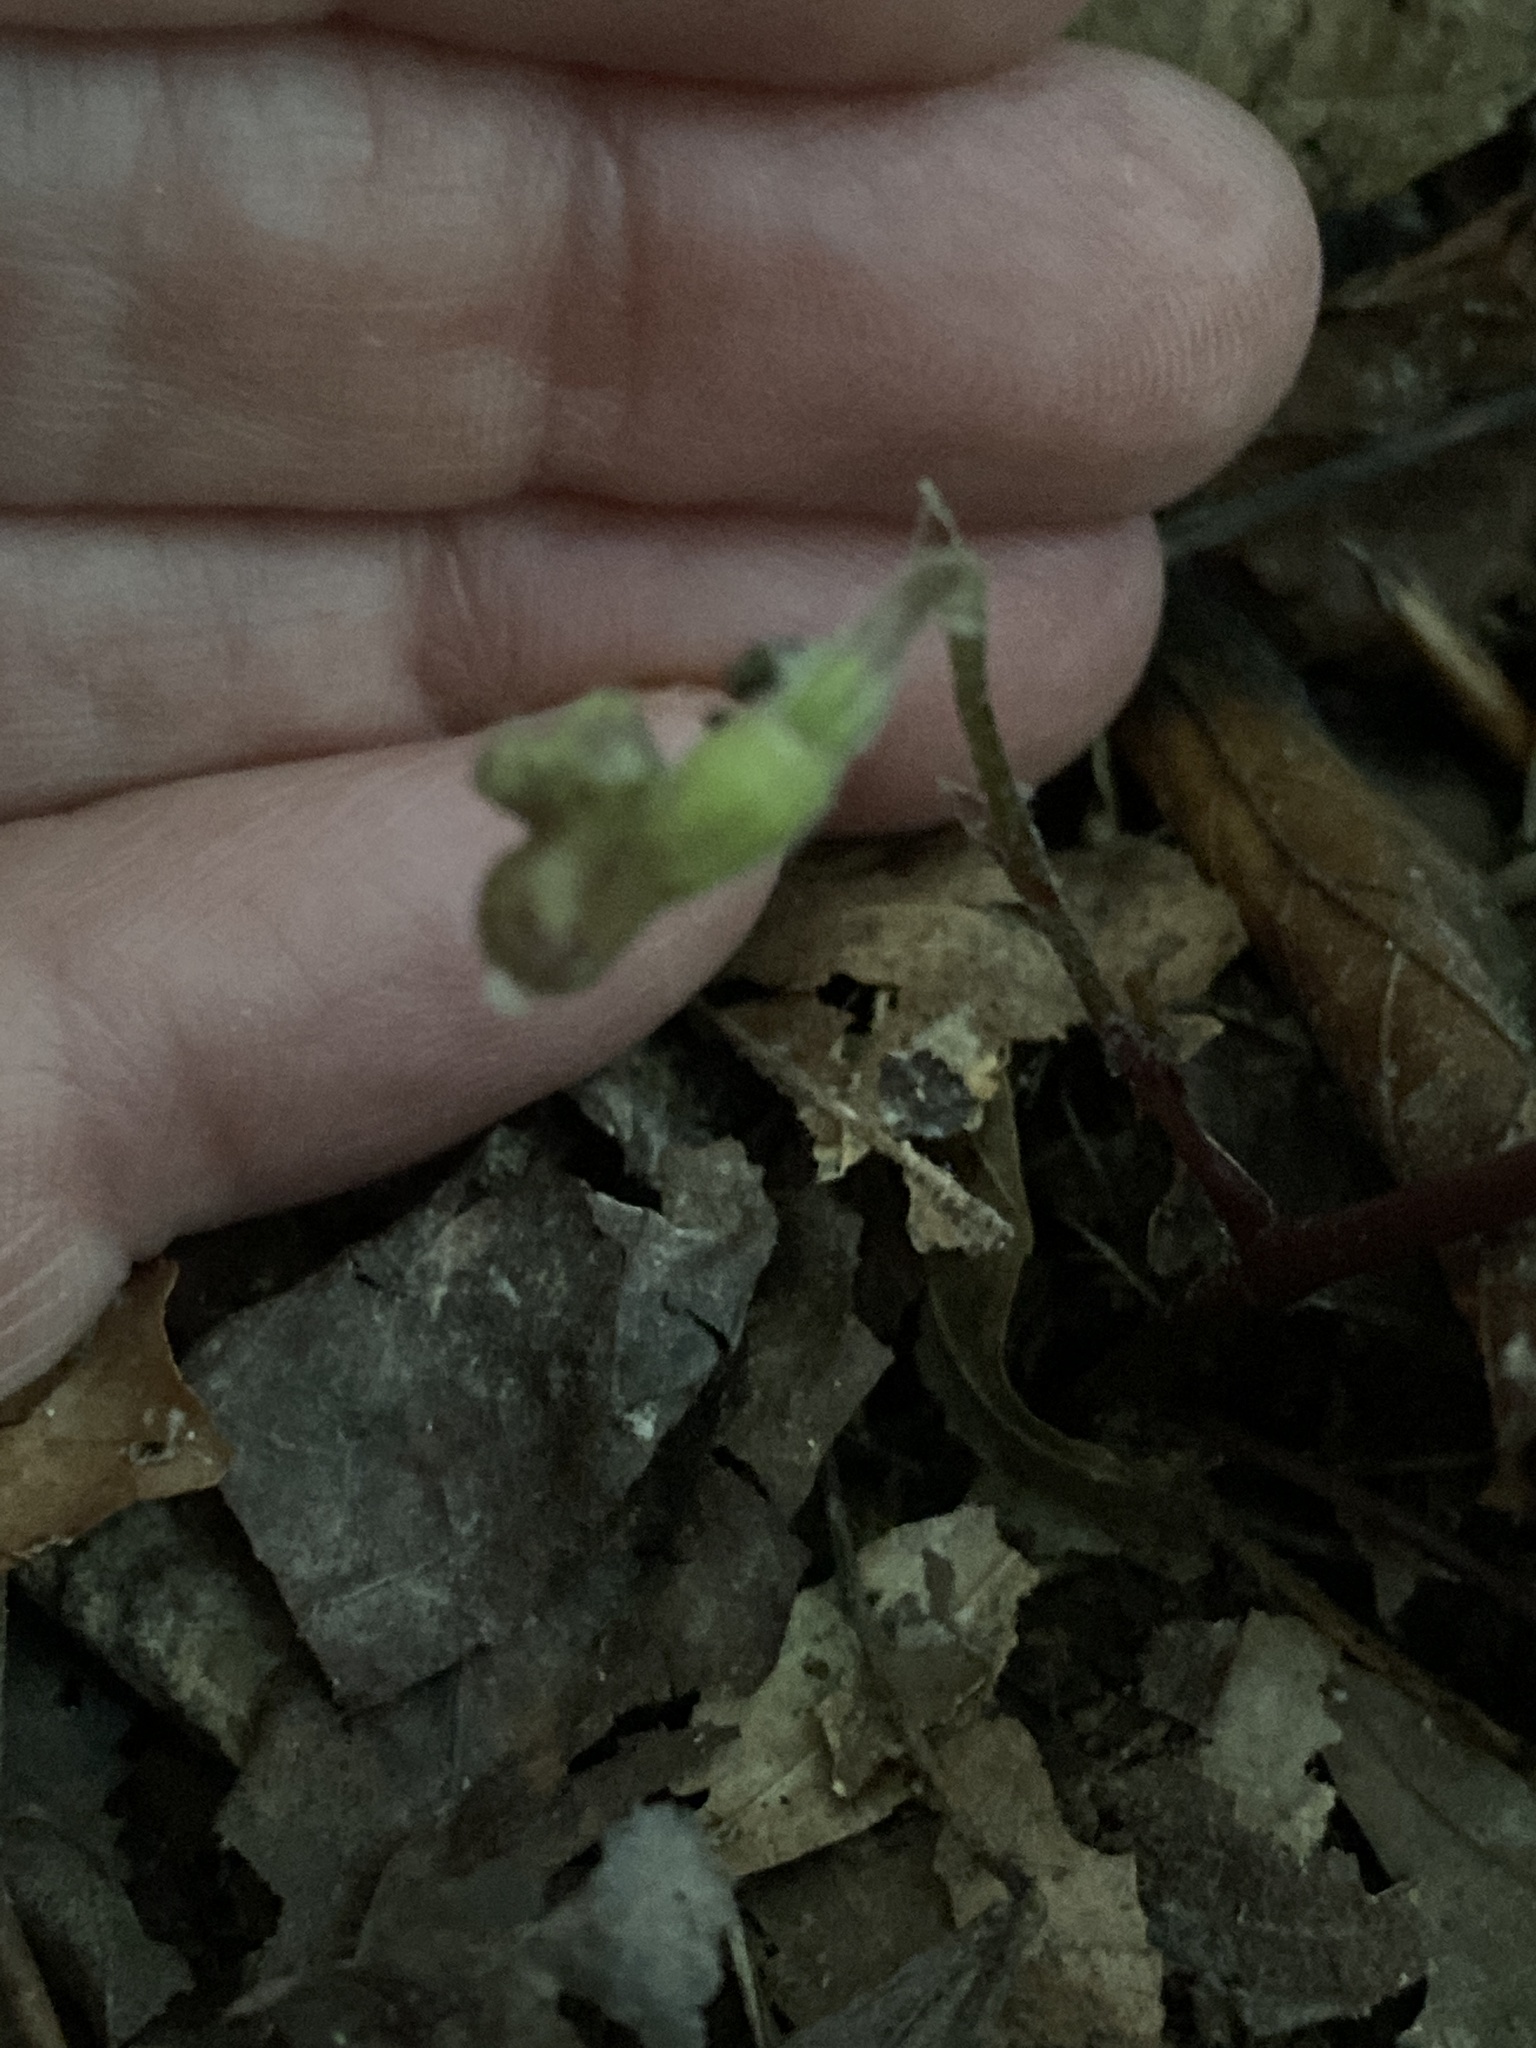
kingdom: Plantae
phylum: Tracheophyta
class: Magnoliopsida
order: Piperales
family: Aristolochiaceae
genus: Endodeca
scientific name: Endodeca serpentaria
